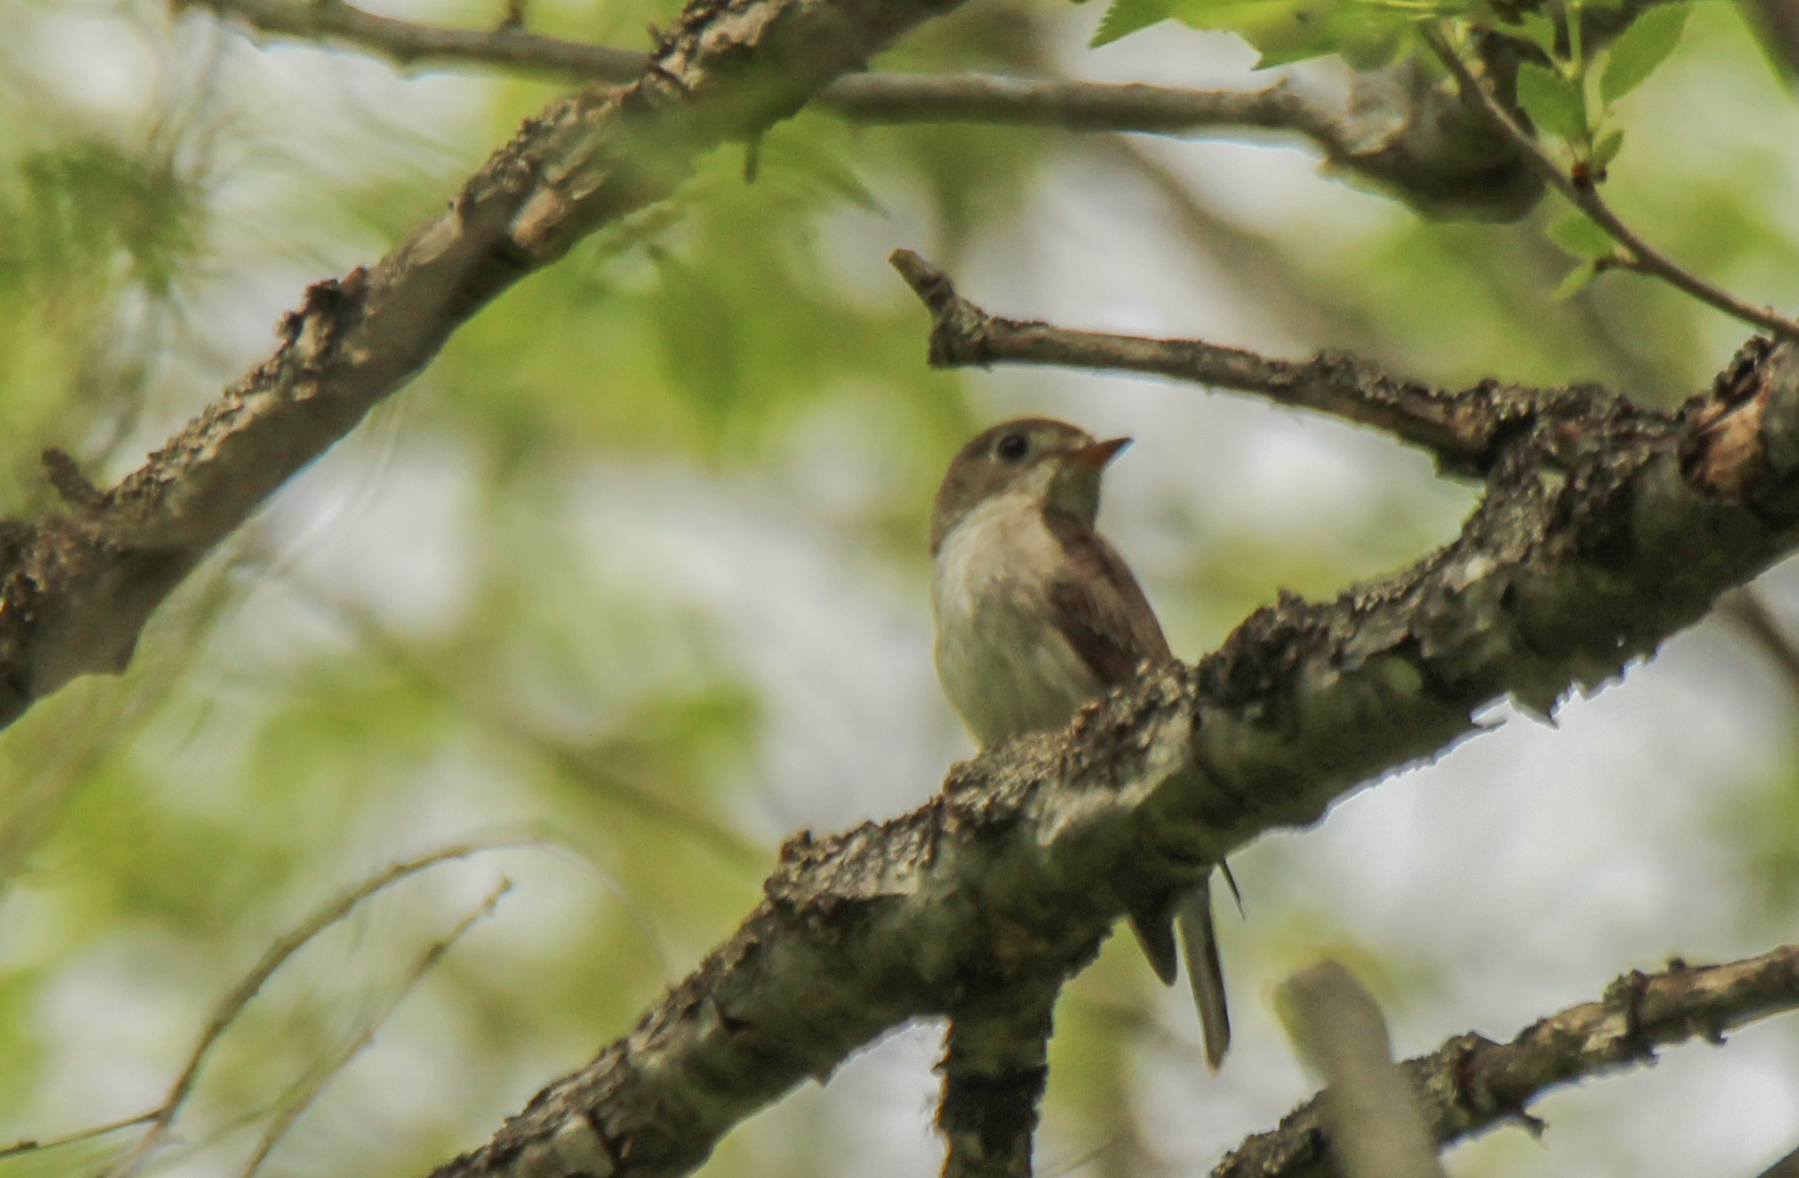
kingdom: Animalia
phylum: Chordata
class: Aves
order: Passeriformes
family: Muscicapidae
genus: Muscicapa
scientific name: Muscicapa latirostris
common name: Asian brown flycatcher
